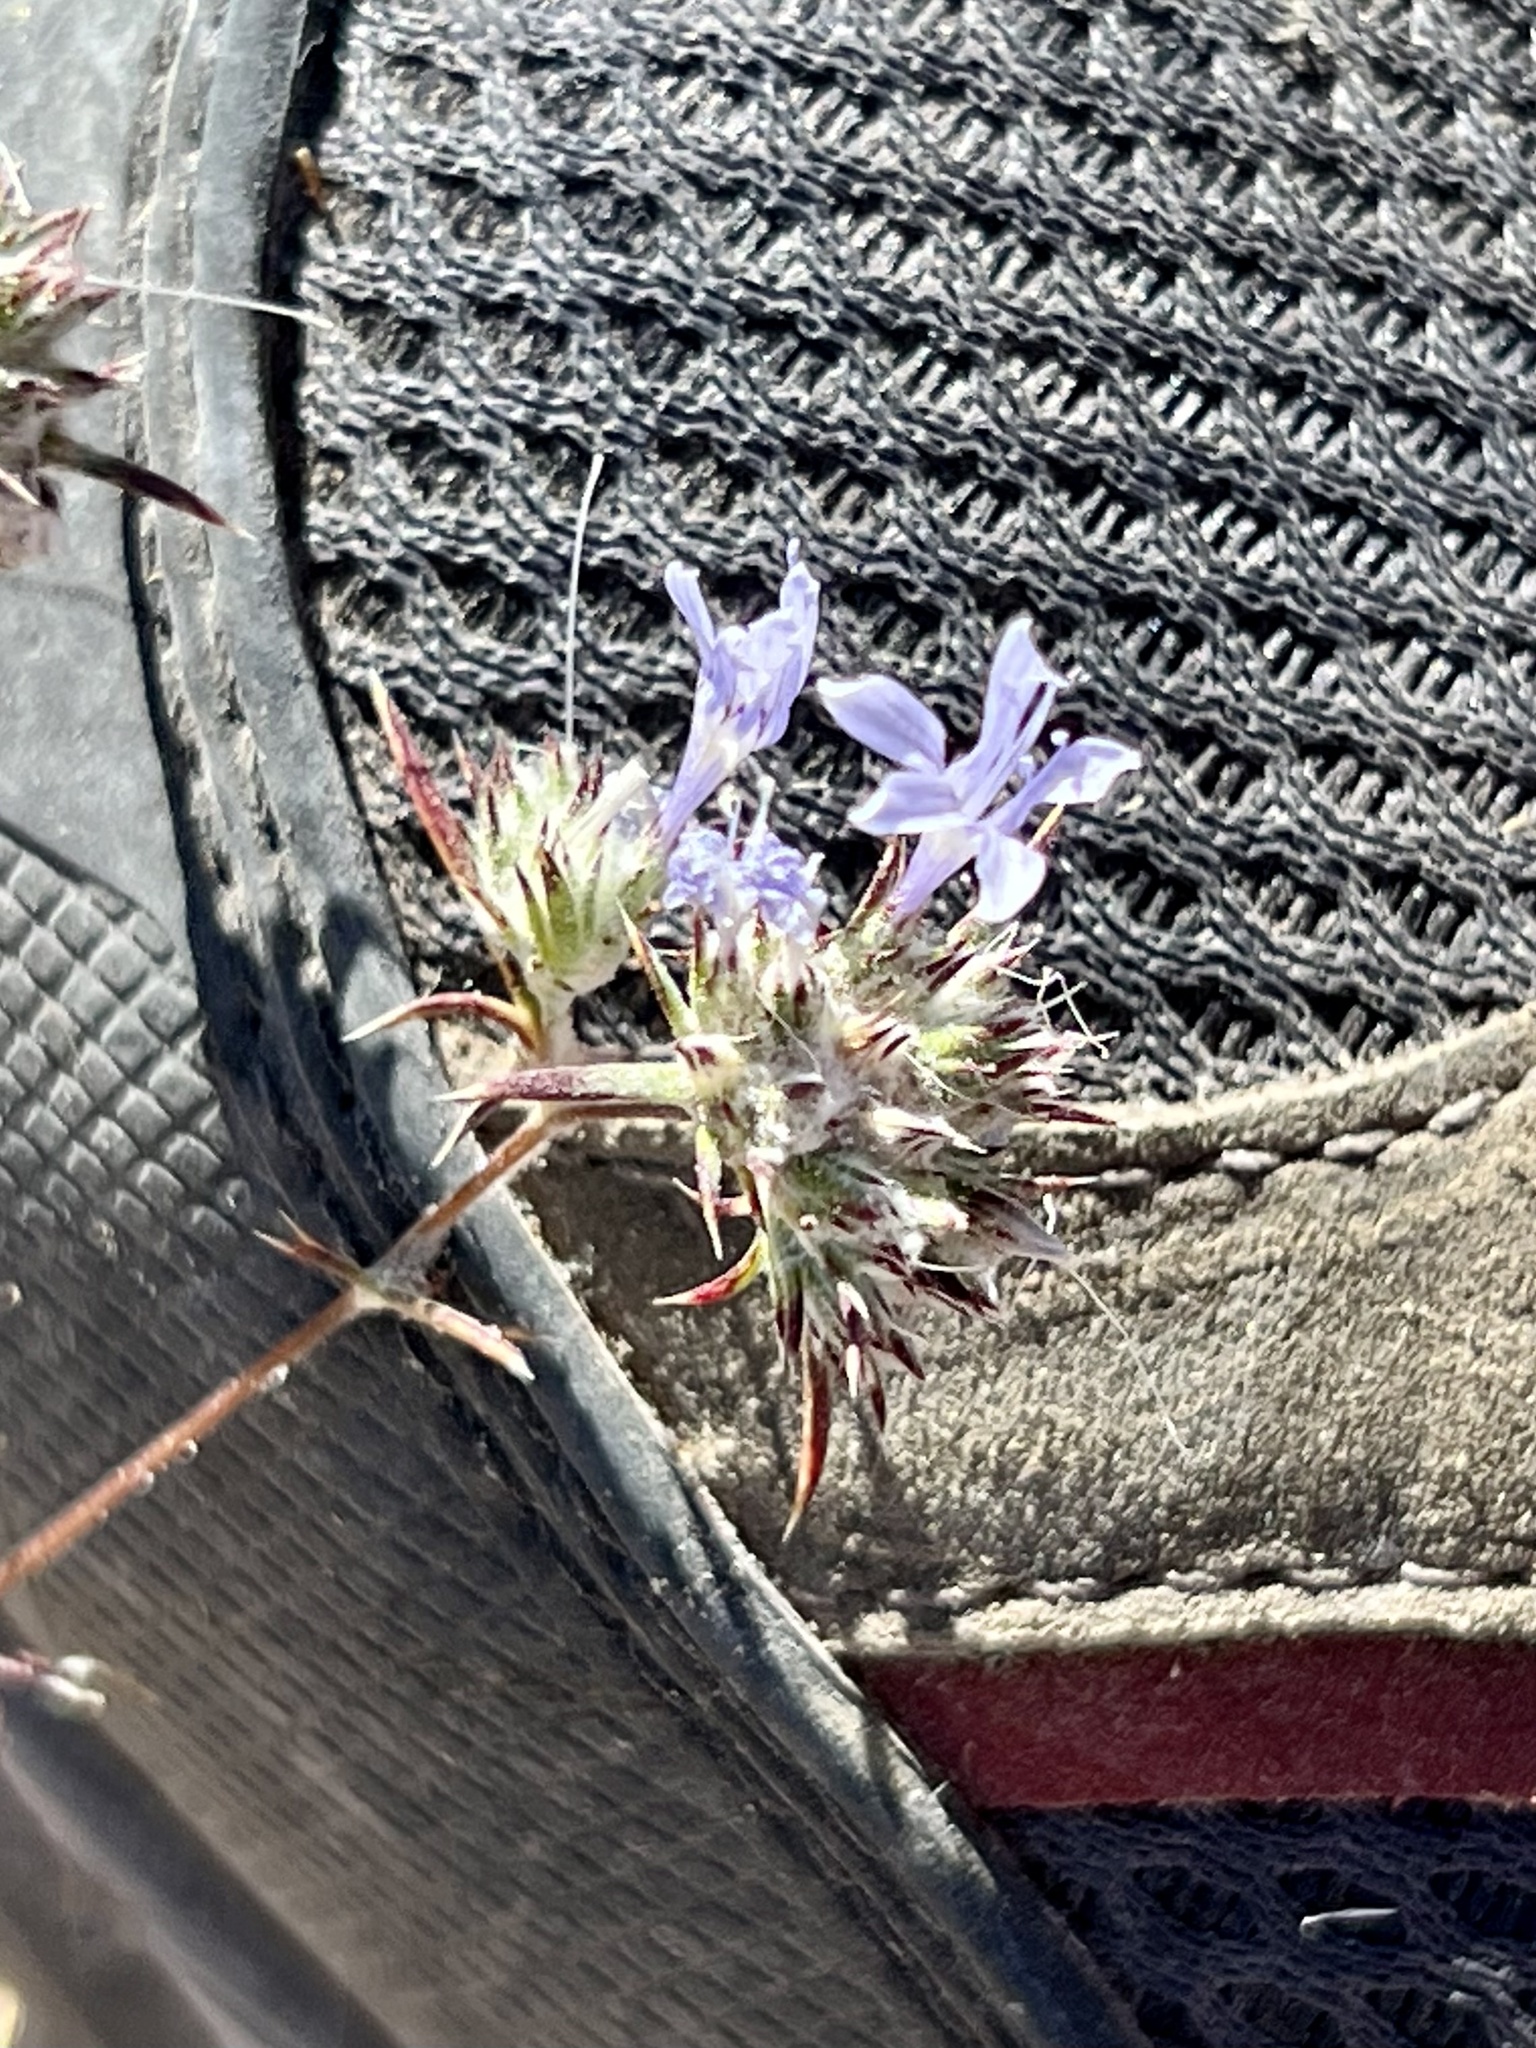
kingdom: Plantae
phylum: Tracheophyta
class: Magnoliopsida
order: Ericales
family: Polemoniaceae
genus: Eriastrum
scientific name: Eriastrum eremicum
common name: Desert eriastrum
